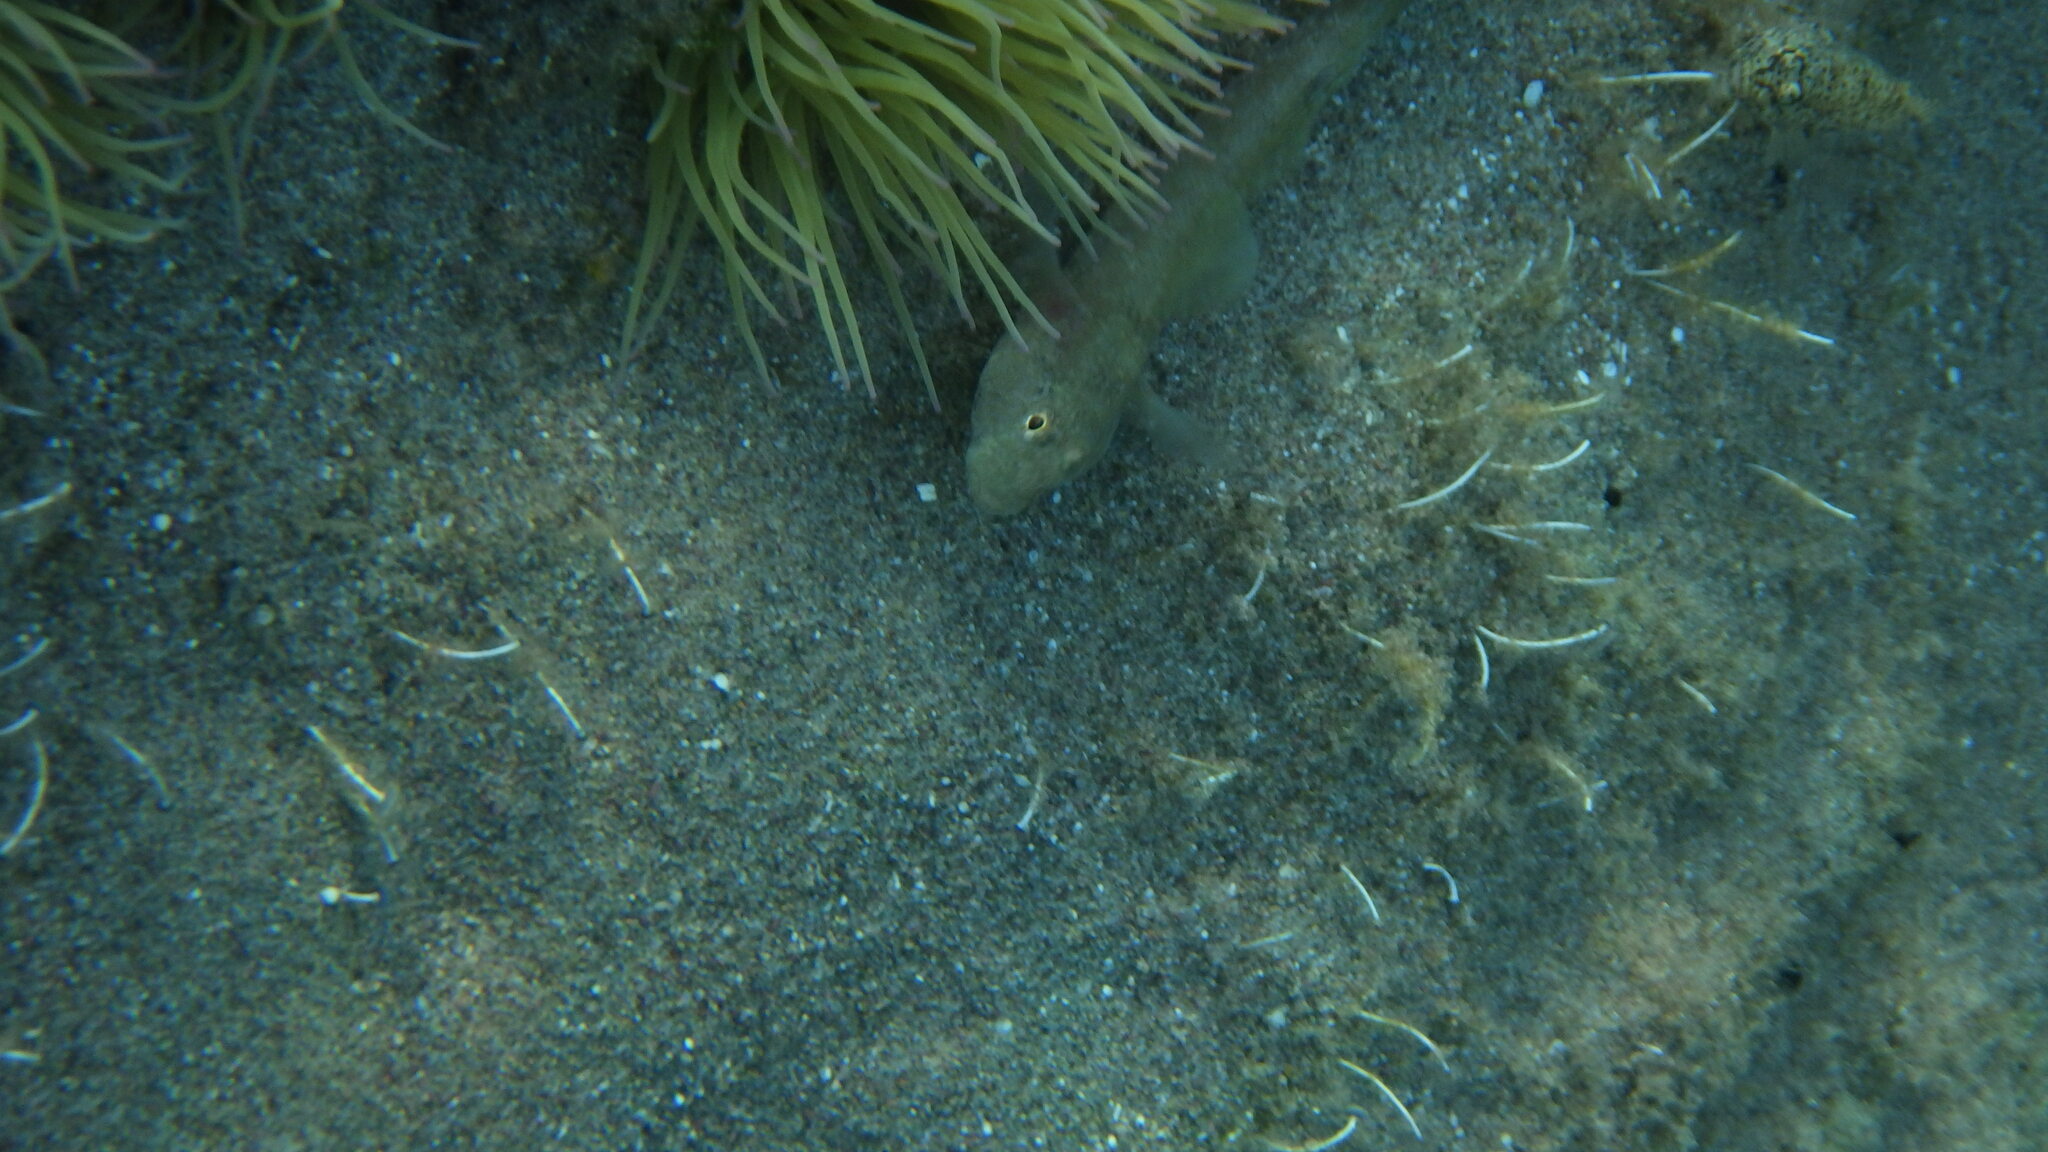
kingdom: Animalia
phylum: Chordata
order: Perciformes
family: Gobiidae
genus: Gobius
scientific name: Gobius
